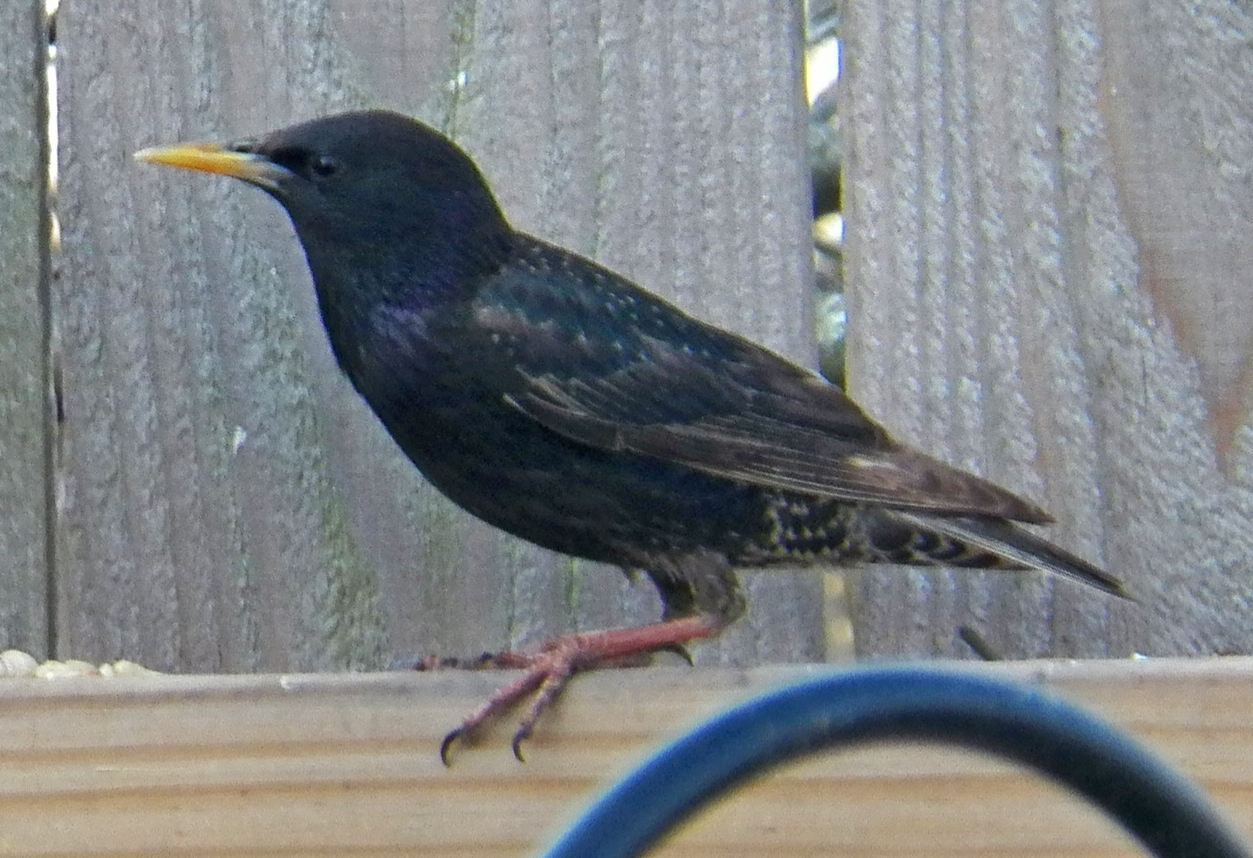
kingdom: Animalia
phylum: Chordata
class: Aves
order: Passeriformes
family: Sturnidae
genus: Sturnus
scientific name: Sturnus vulgaris
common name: Common starling
